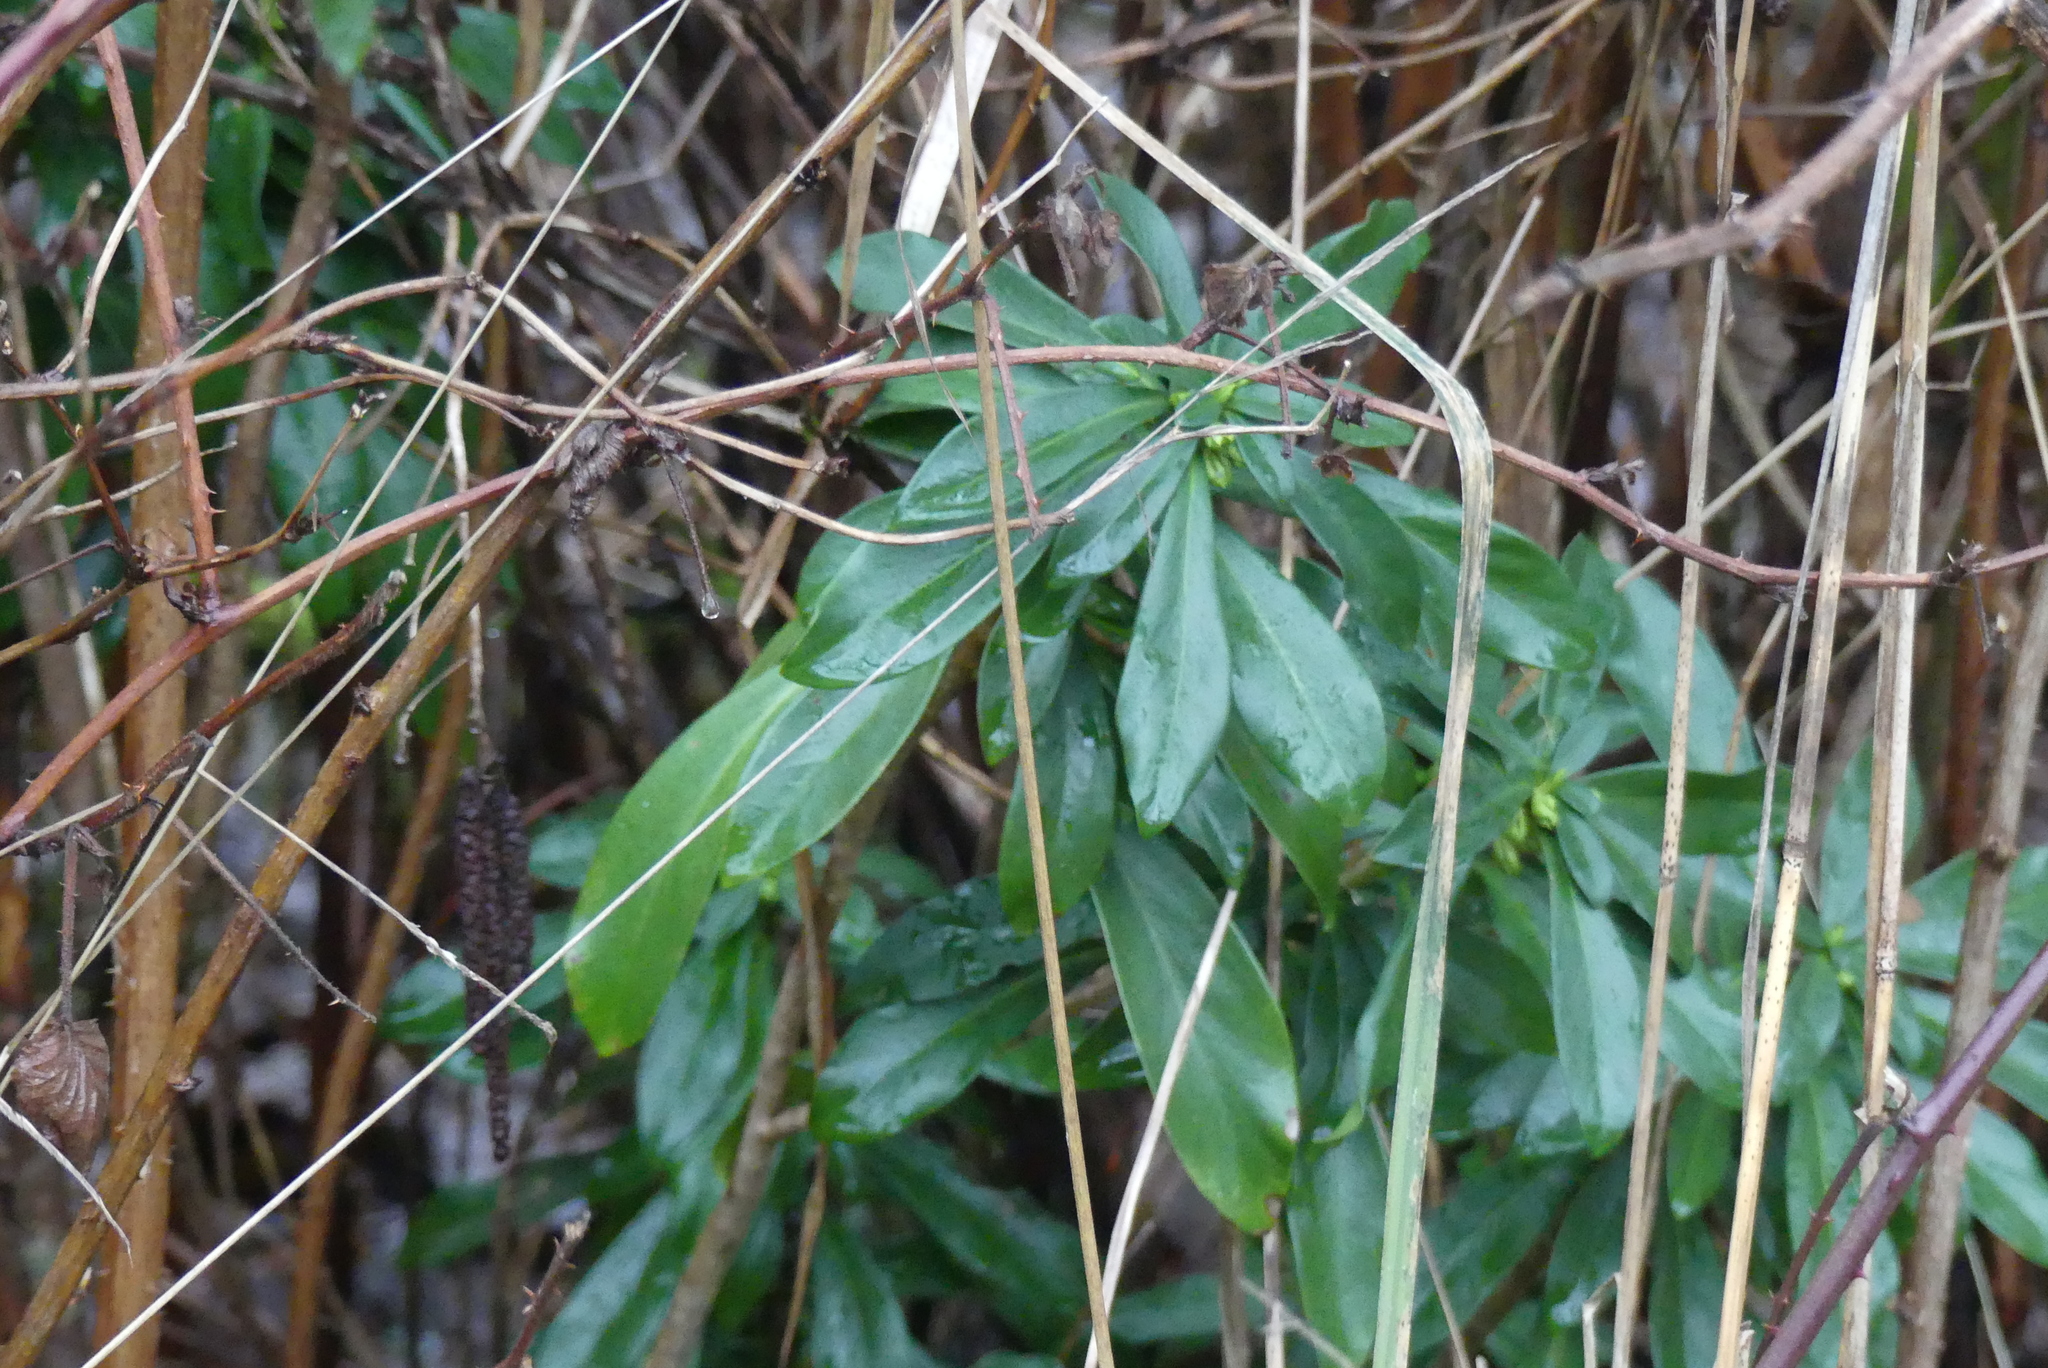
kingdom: Plantae
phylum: Tracheophyta
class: Magnoliopsida
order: Malvales
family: Thymelaeaceae
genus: Daphne
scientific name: Daphne laureola
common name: Spurge-laurel
